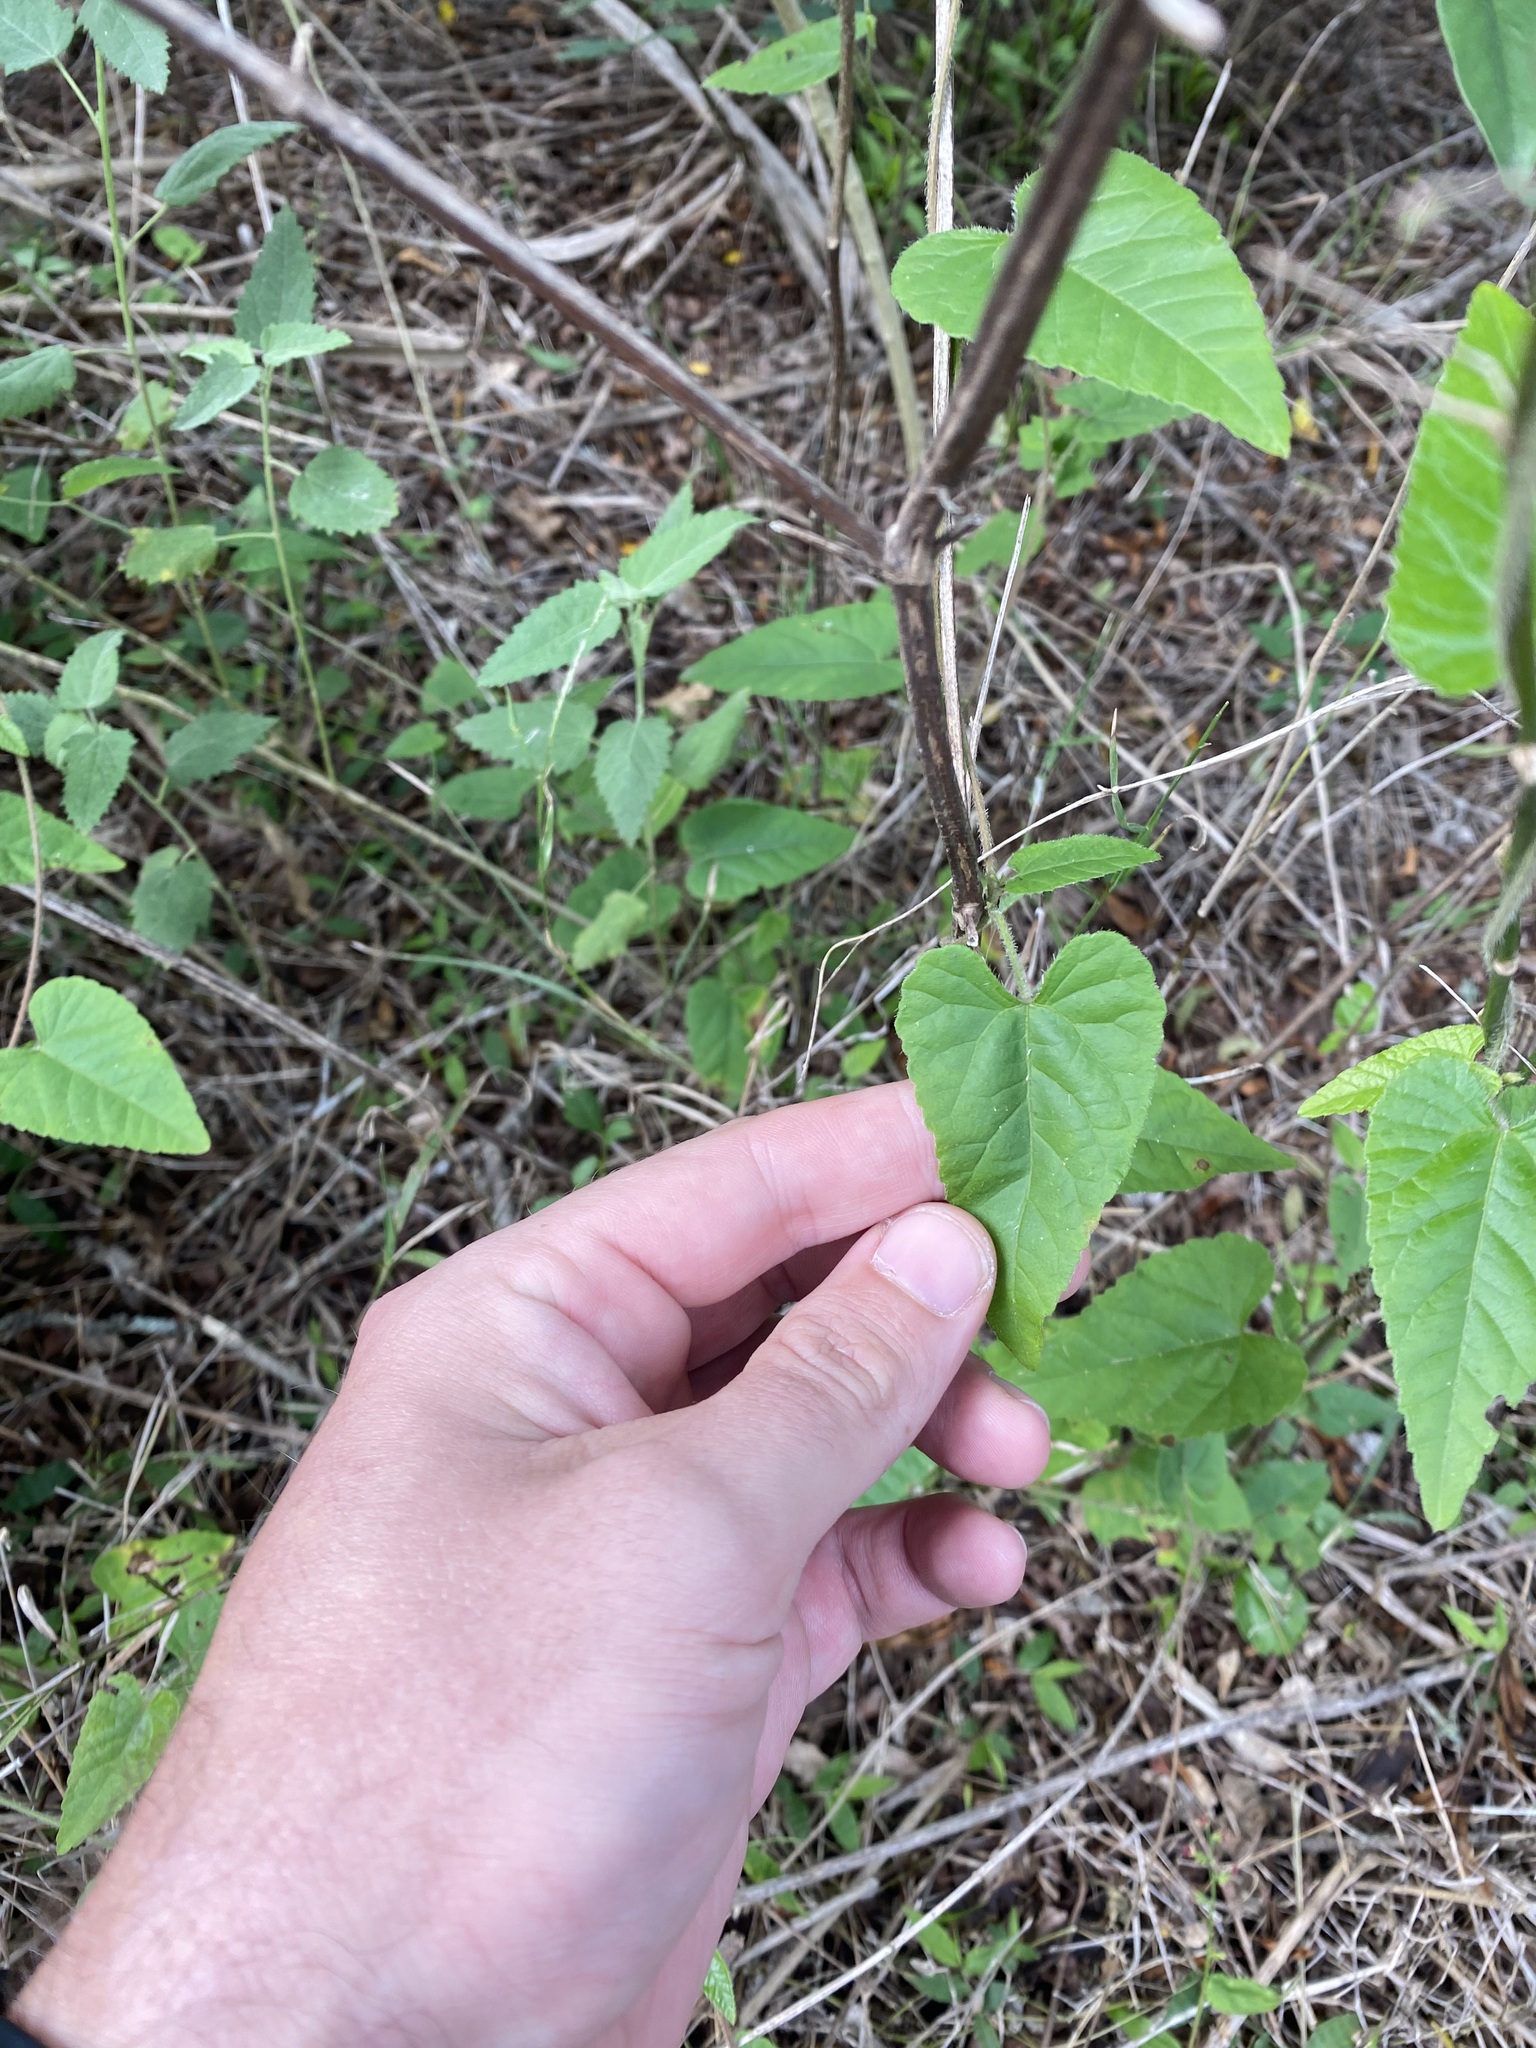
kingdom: Plantae
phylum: Tracheophyta
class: Magnoliopsida
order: Malpighiales
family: Euphorbiaceae
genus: Tragia
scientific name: Tragia volubilis
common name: Twining cow-itch
